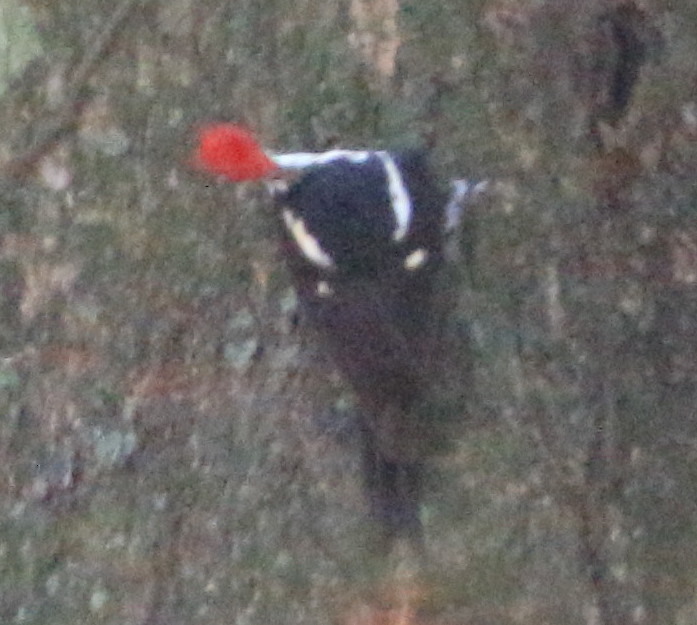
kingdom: Animalia
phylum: Chordata
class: Aves
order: Piciformes
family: Picidae
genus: Dryocopus
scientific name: Dryocopus lineatus
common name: Lineated woodpecker
